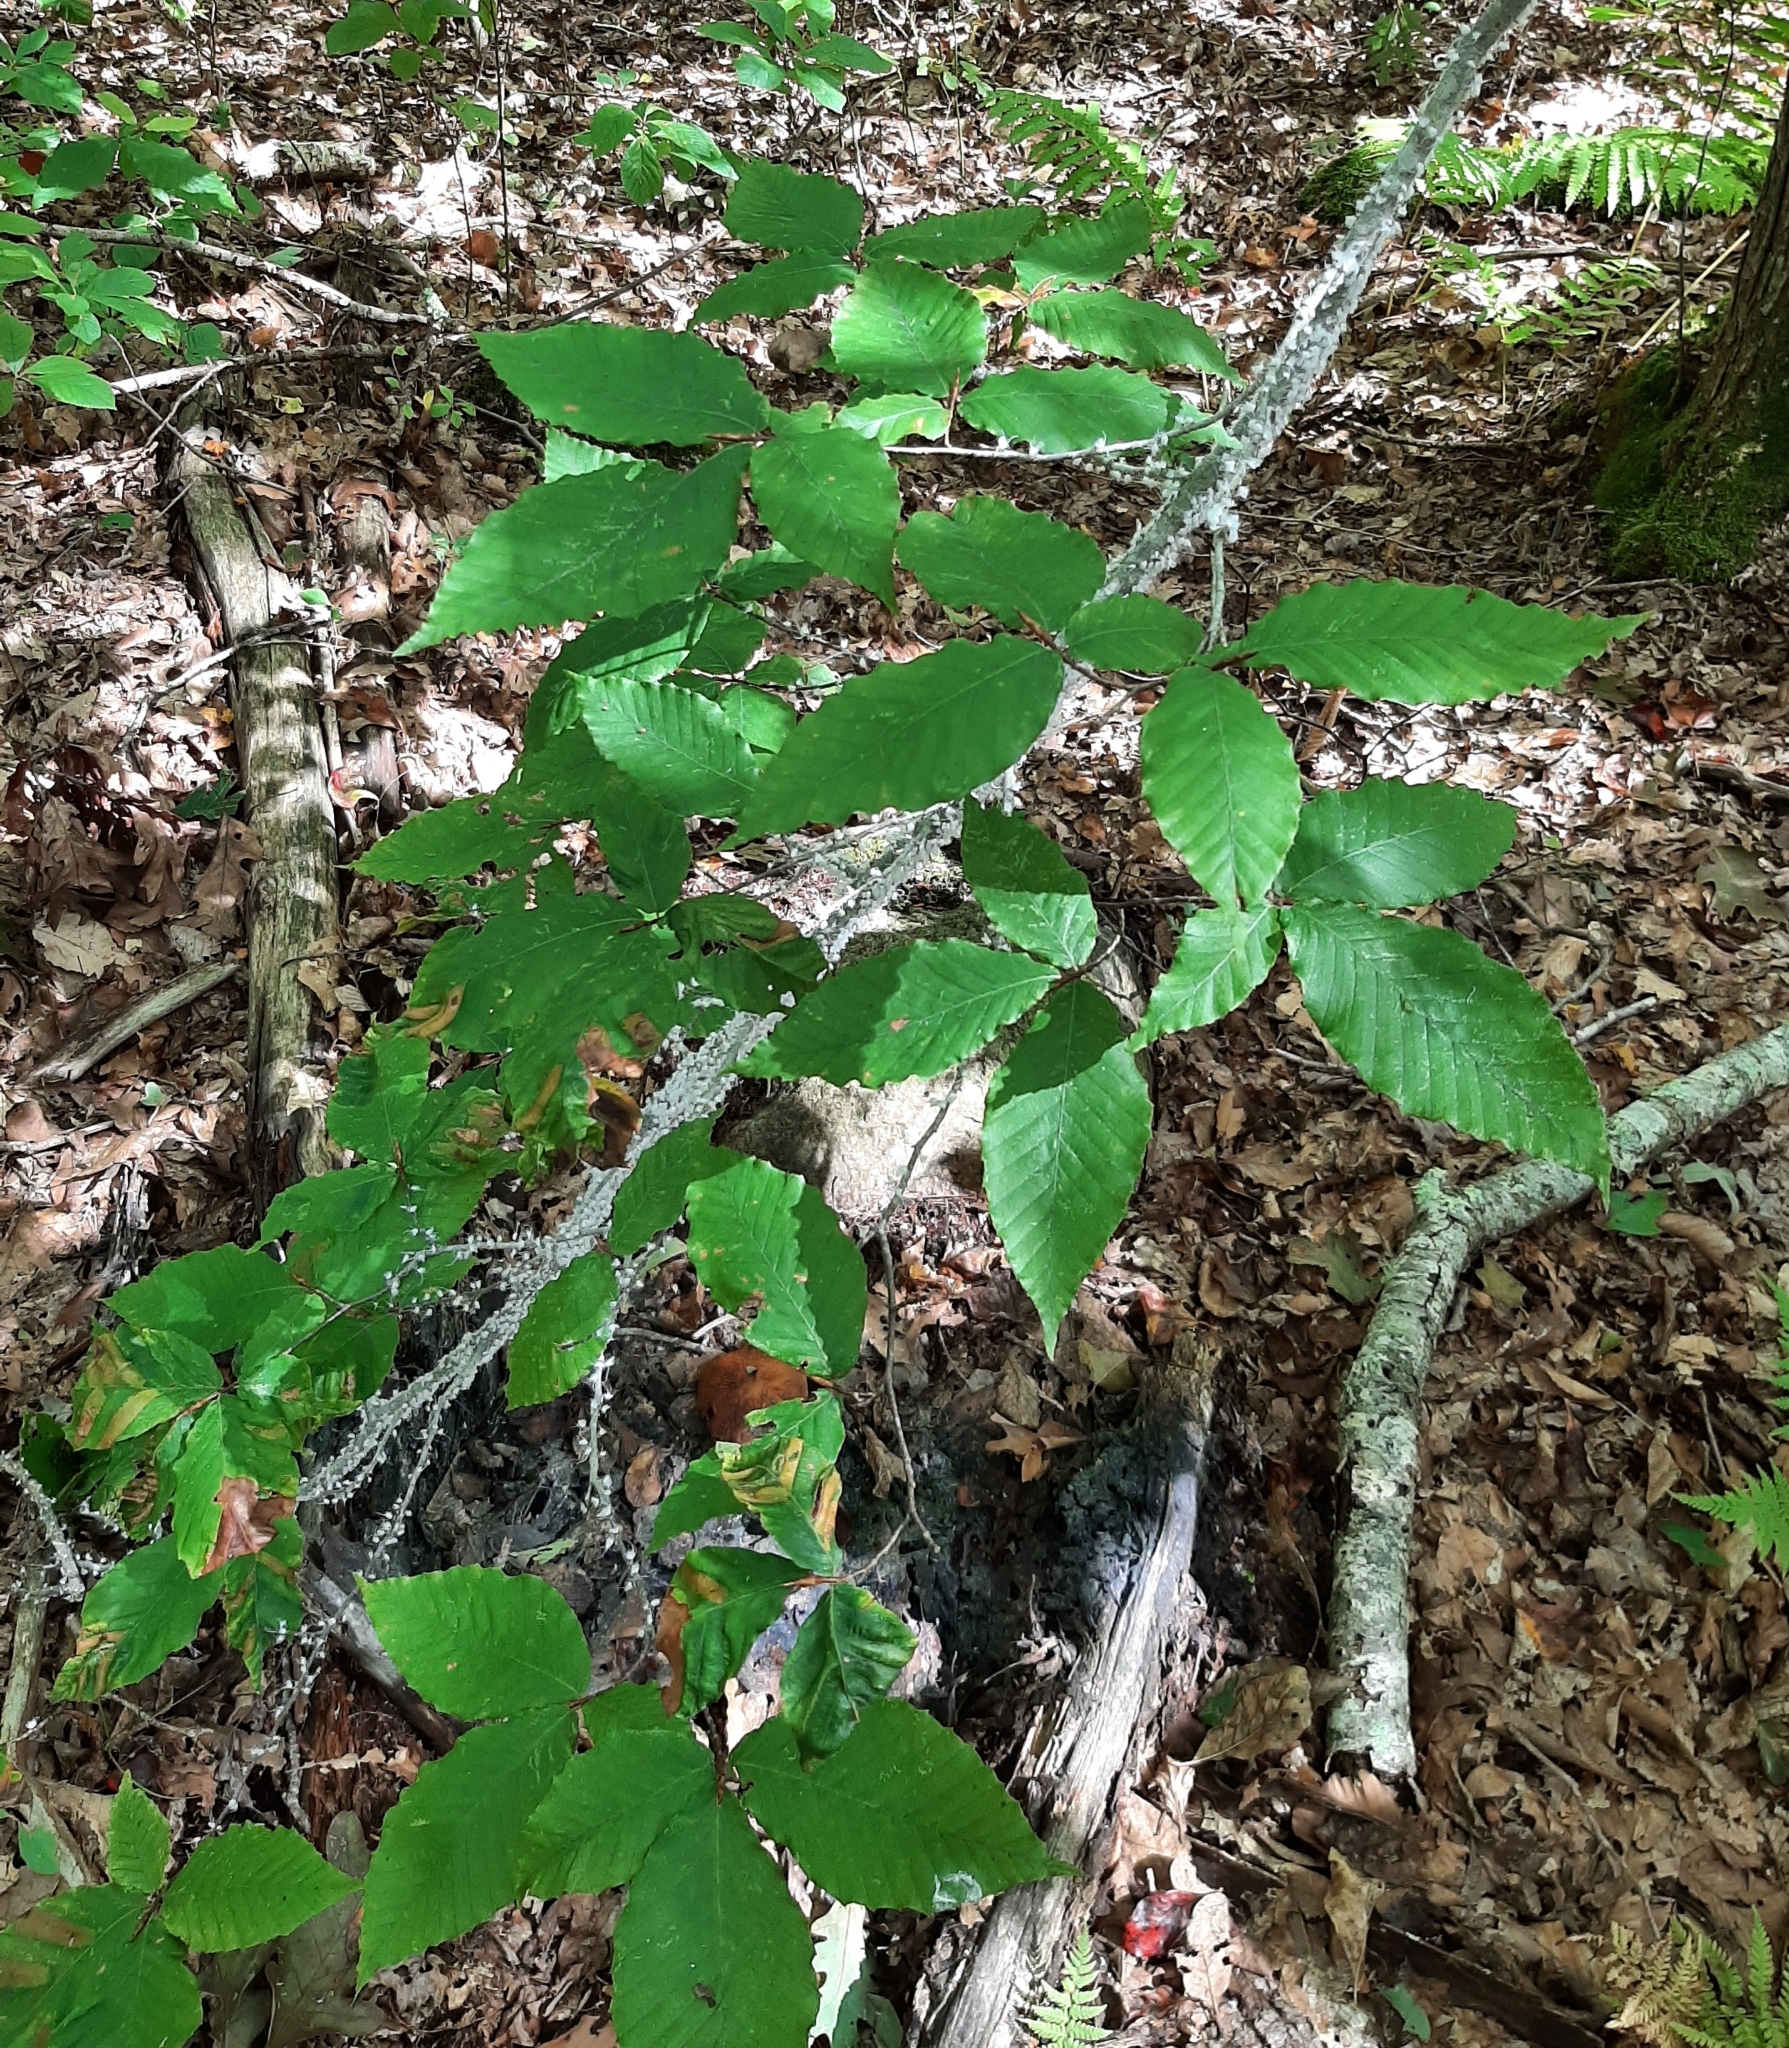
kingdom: Animalia
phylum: Arthropoda
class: Insecta
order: Hemiptera
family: Aphididae
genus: Grylloprociphilus
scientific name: Grylloprociphilus imbricator
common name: Beech blight aphid
